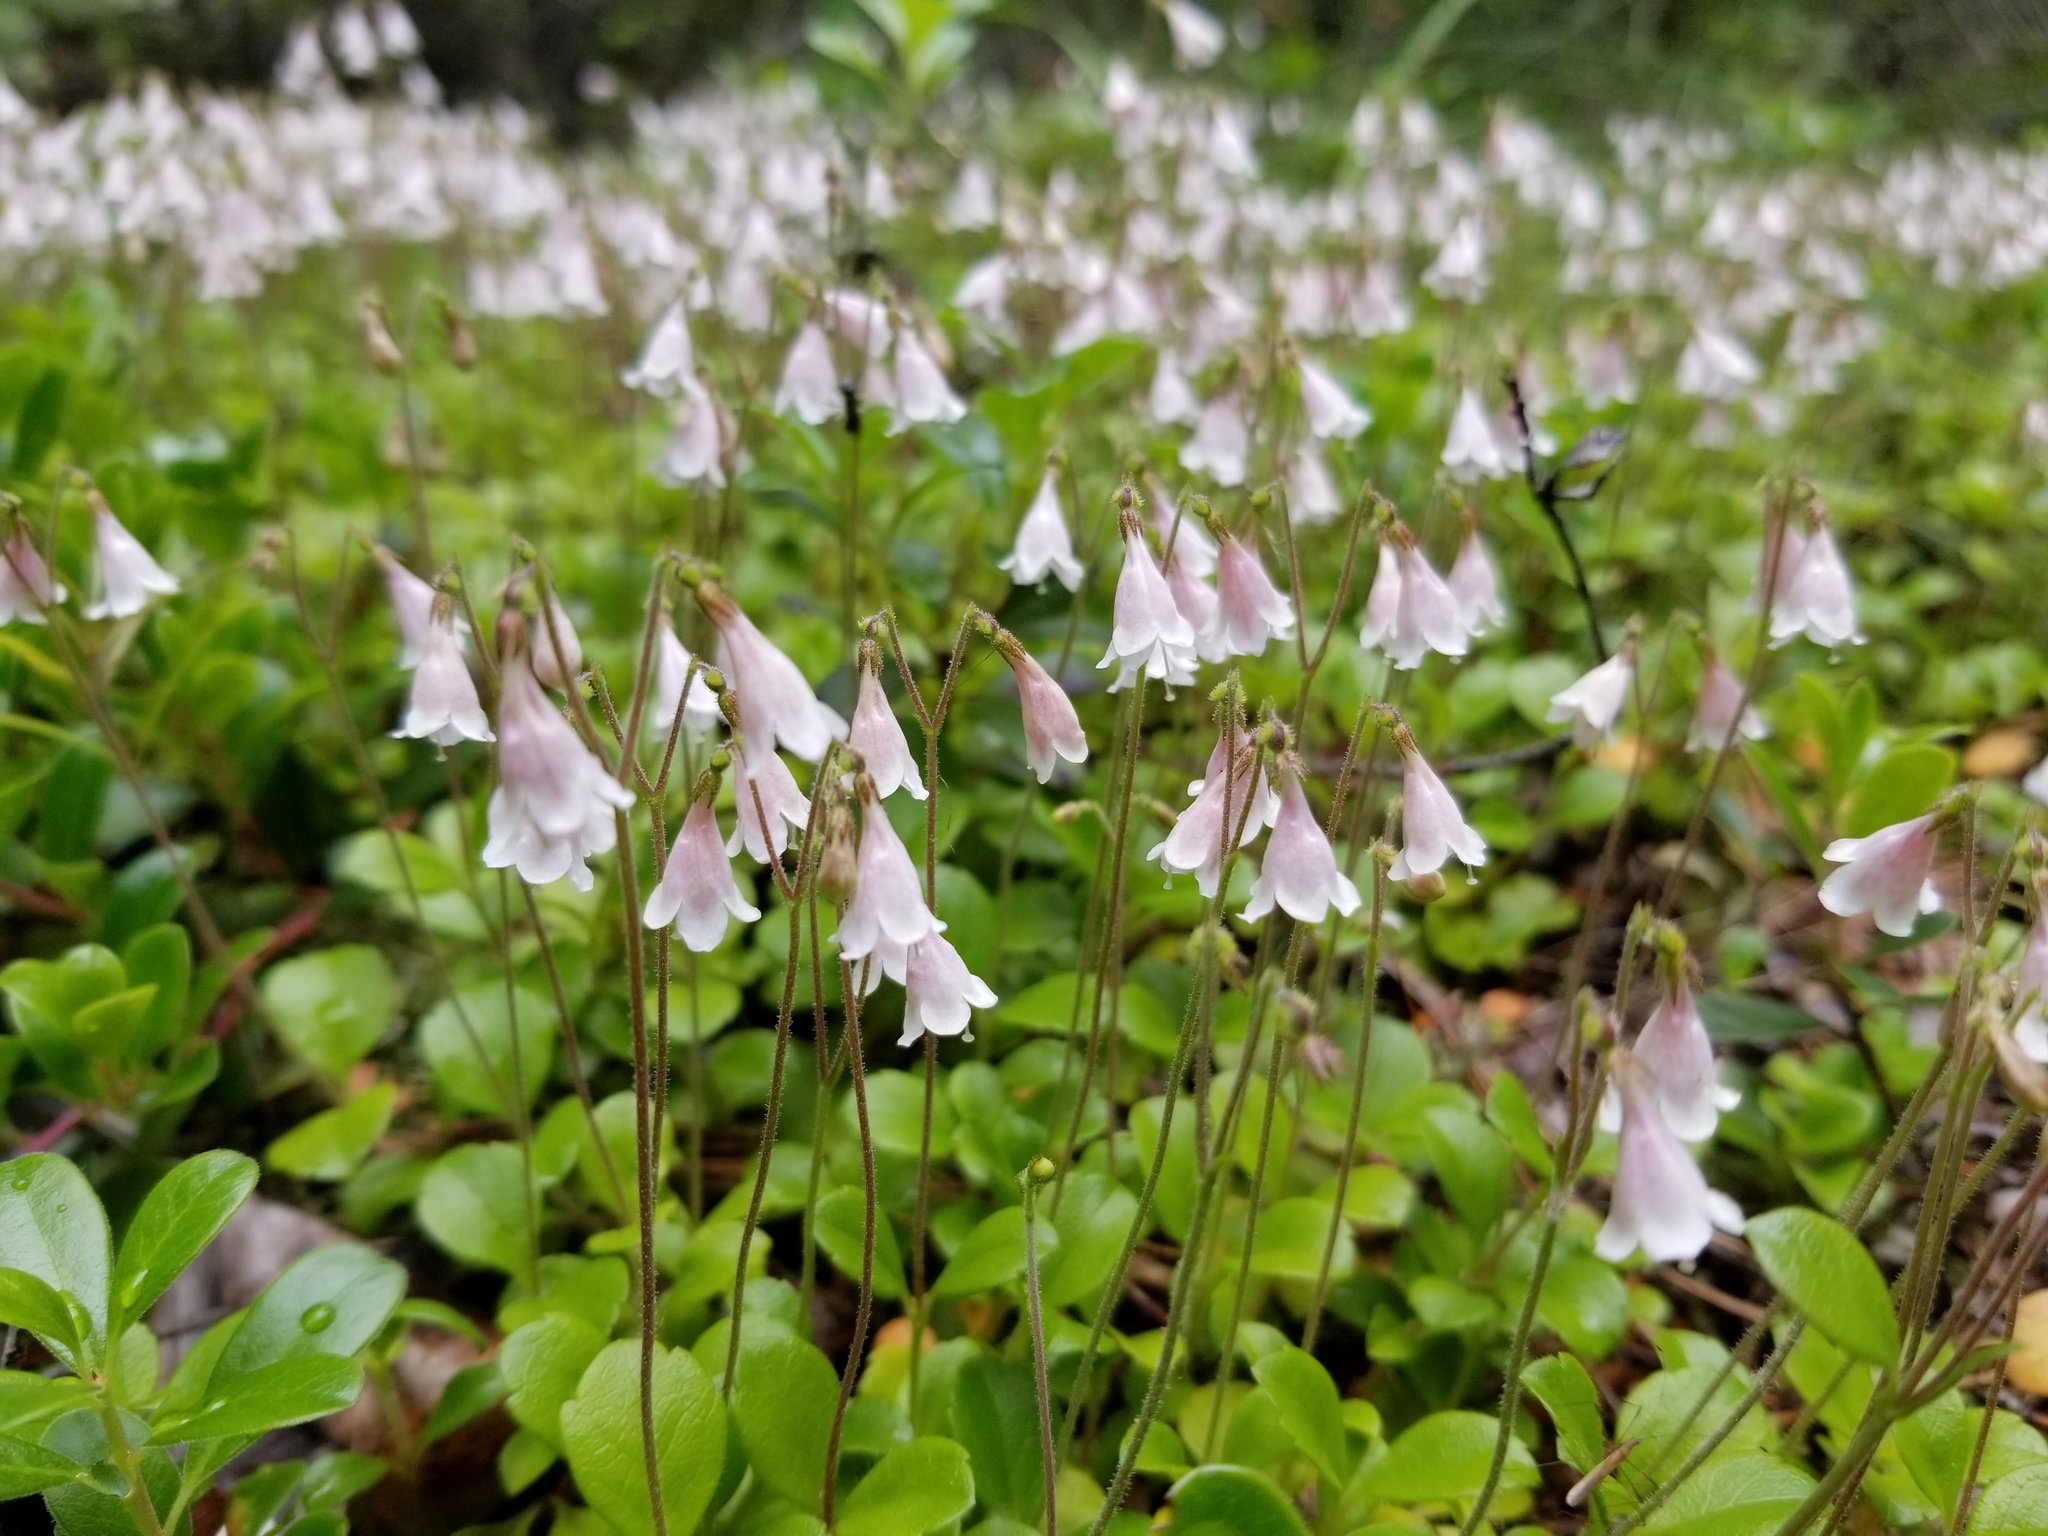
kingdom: Plantae
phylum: Tracheophyta
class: Magnoliopsida
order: Dipsacales
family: Caprifoliaceae
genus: Linnaea
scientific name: Linnaea borealis
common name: Twinflower
